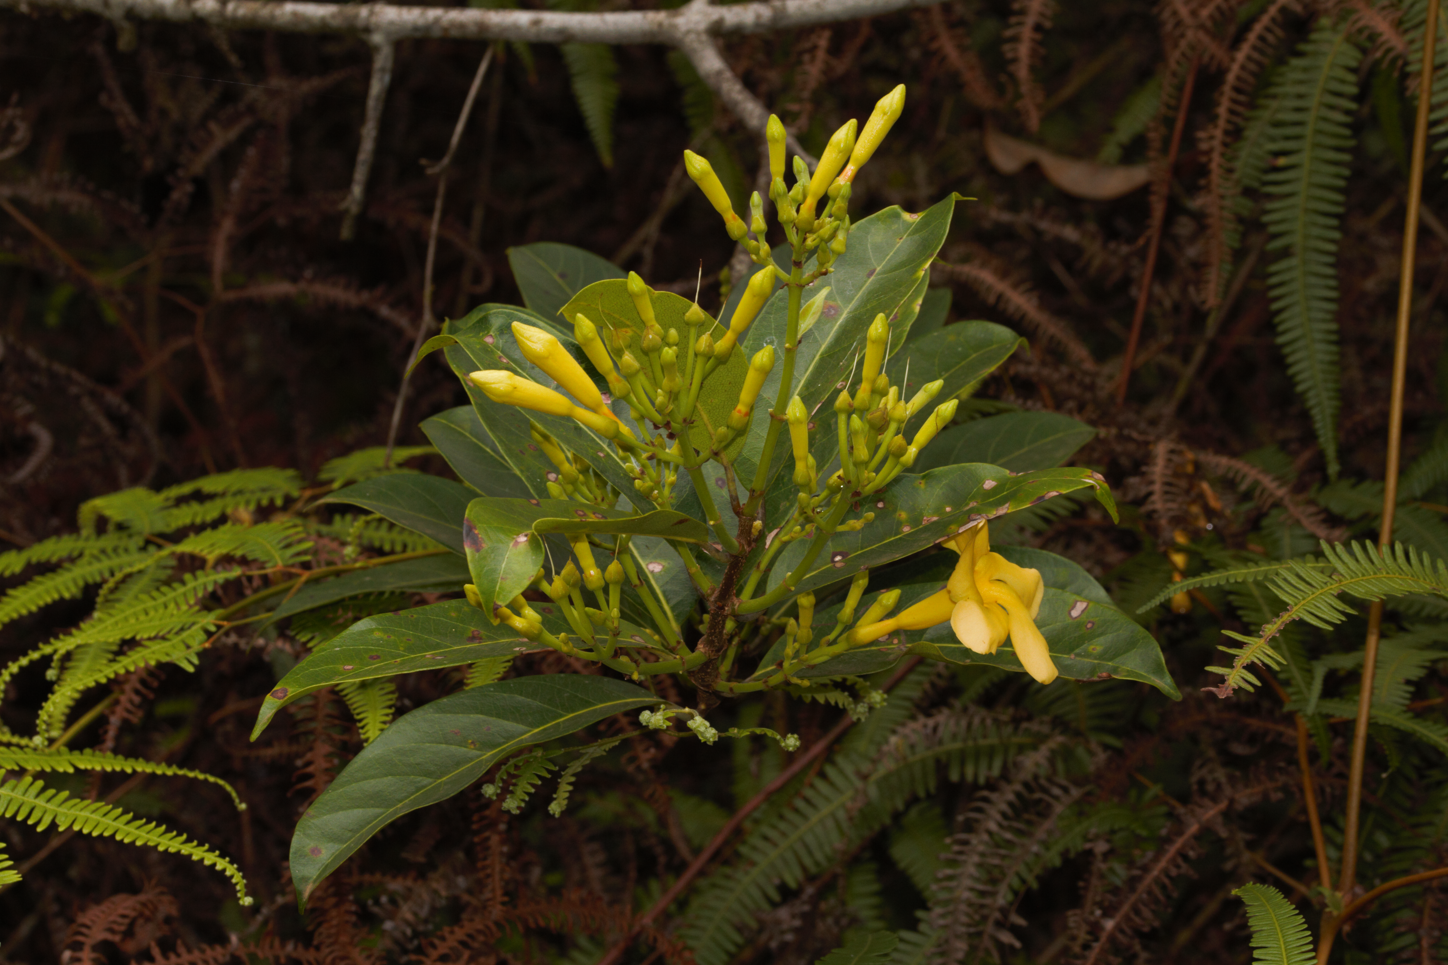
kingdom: Plantae
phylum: Tracheophyta
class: Magnoliopsida
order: Gentianales
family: Apocynaceae
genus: Odontadenia
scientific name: Odontadenia puncticulosa
